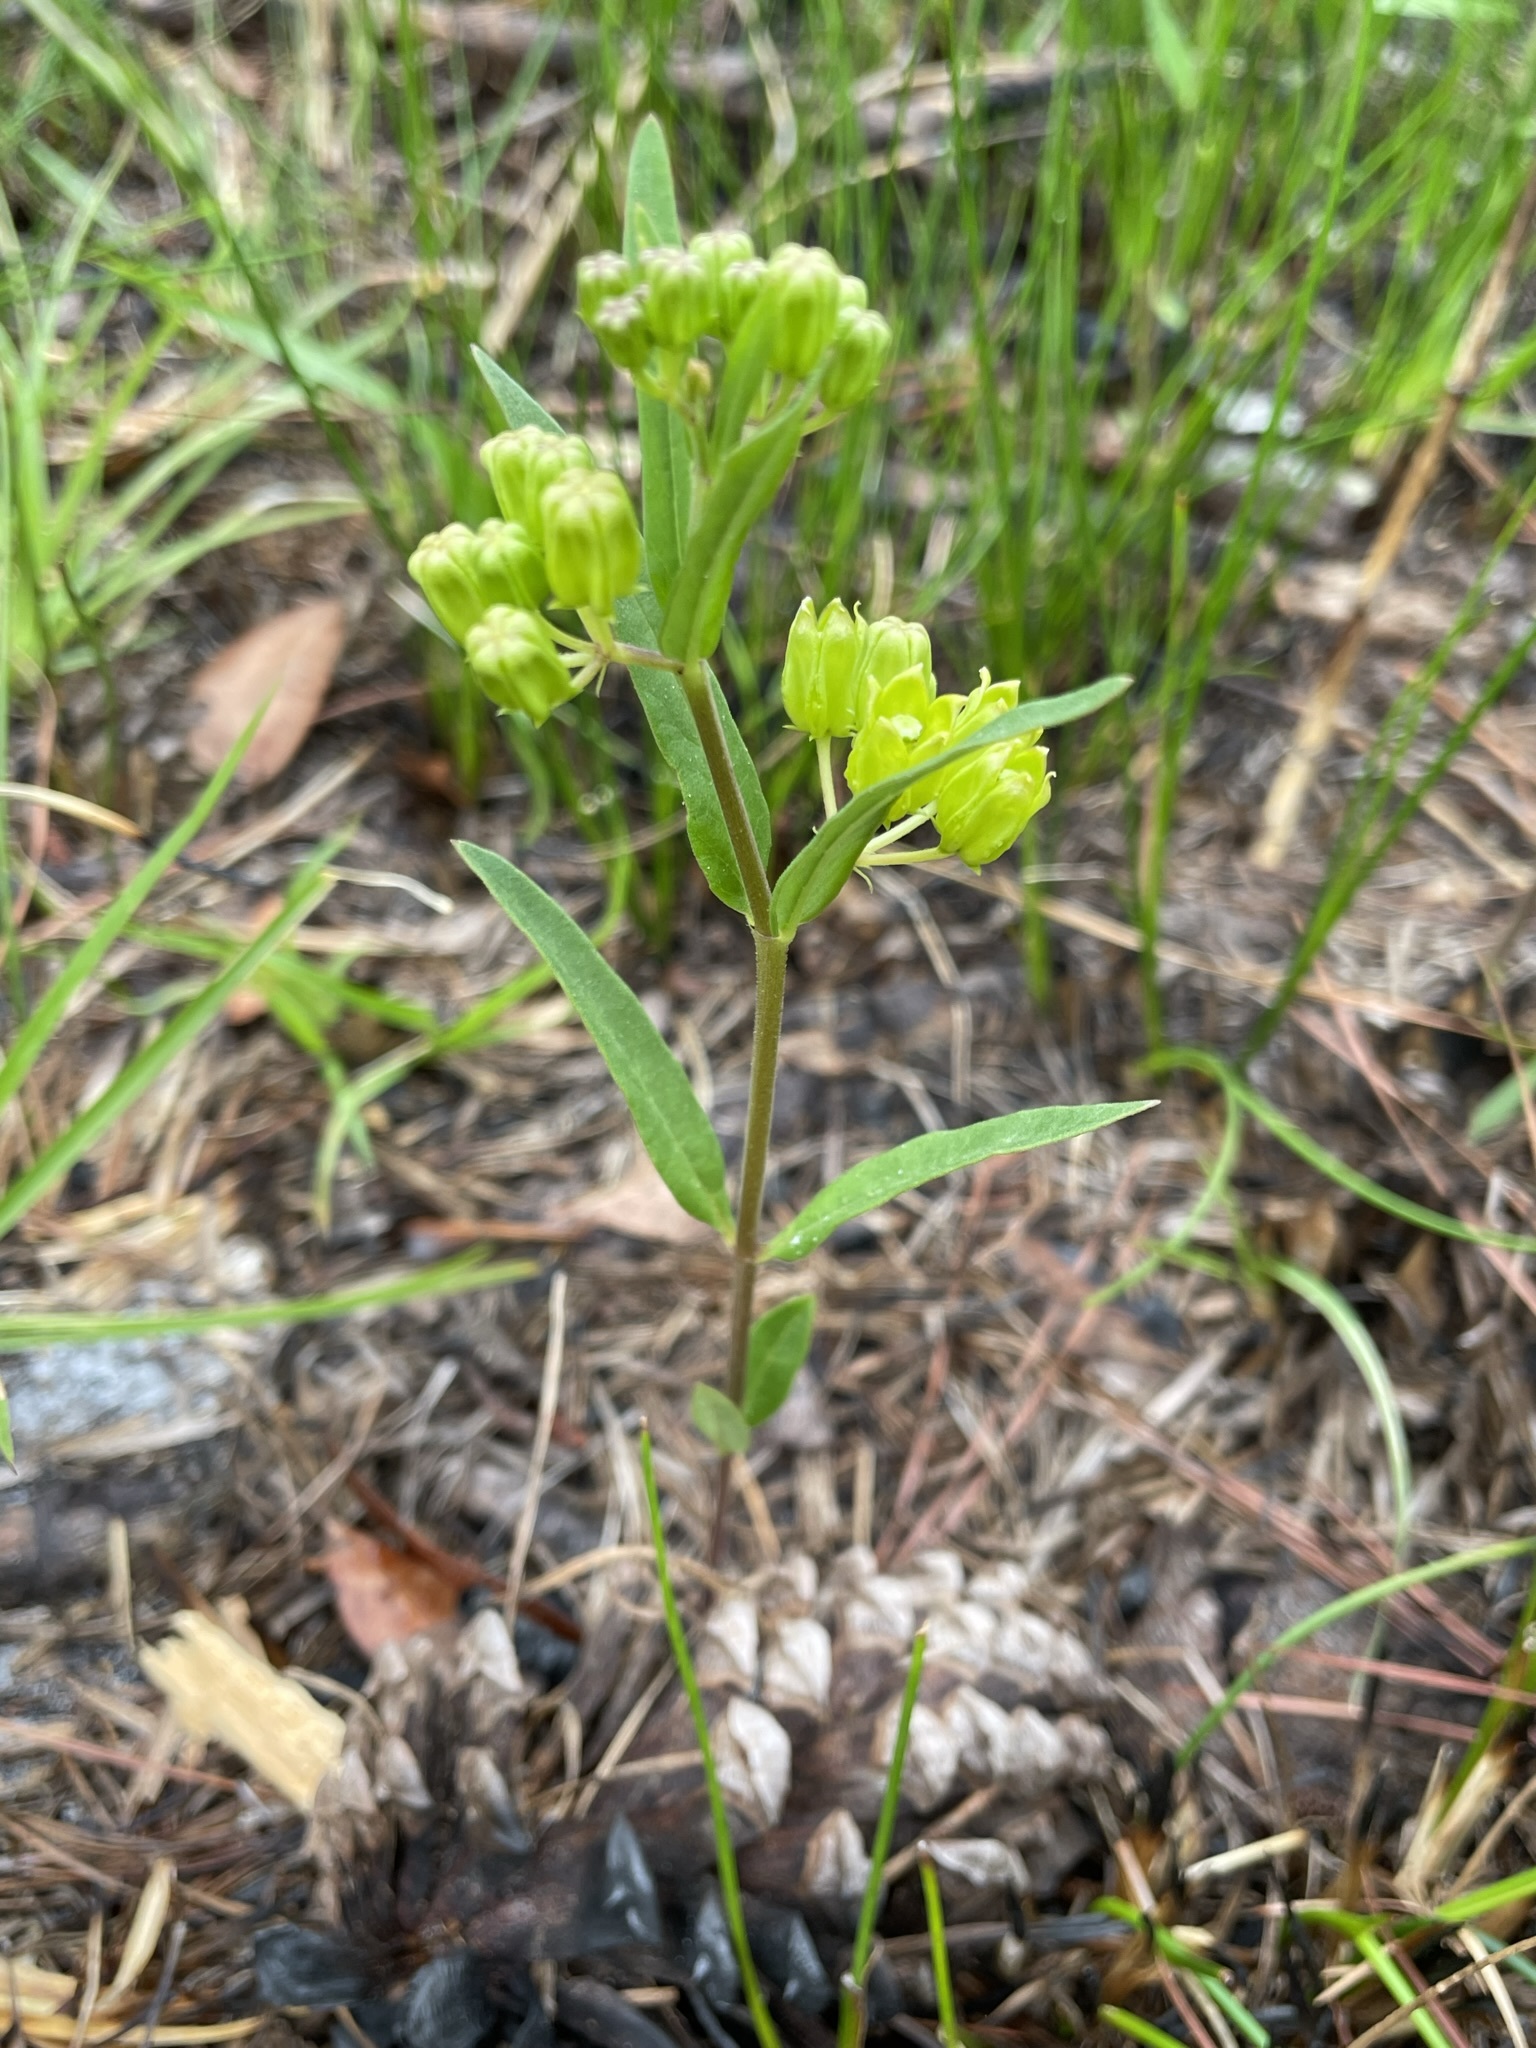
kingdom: Plantae
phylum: Tracheophyta
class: Magnoliopsida
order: Gentianales
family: Apocynaceae
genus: Asclepias
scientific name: Asclepias pedicellata
